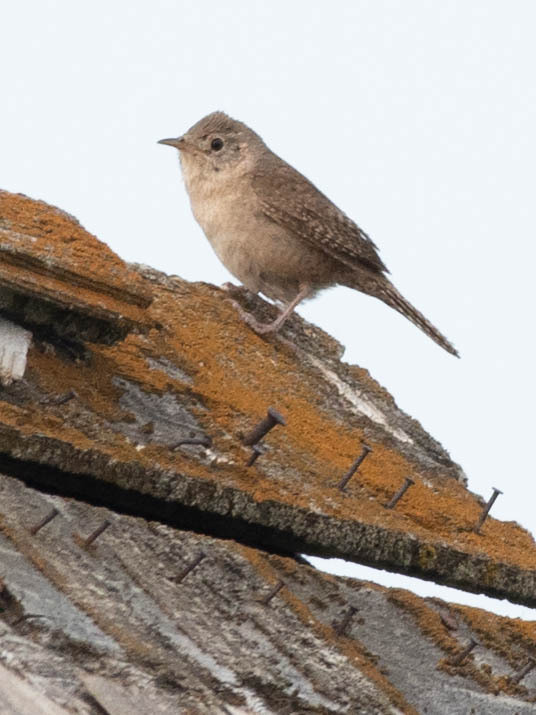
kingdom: Animalia
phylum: Chordata
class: Aves
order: Passeriformes
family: Troglodytidae
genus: Troglodytes
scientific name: Troglodytes aedon
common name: House wren
